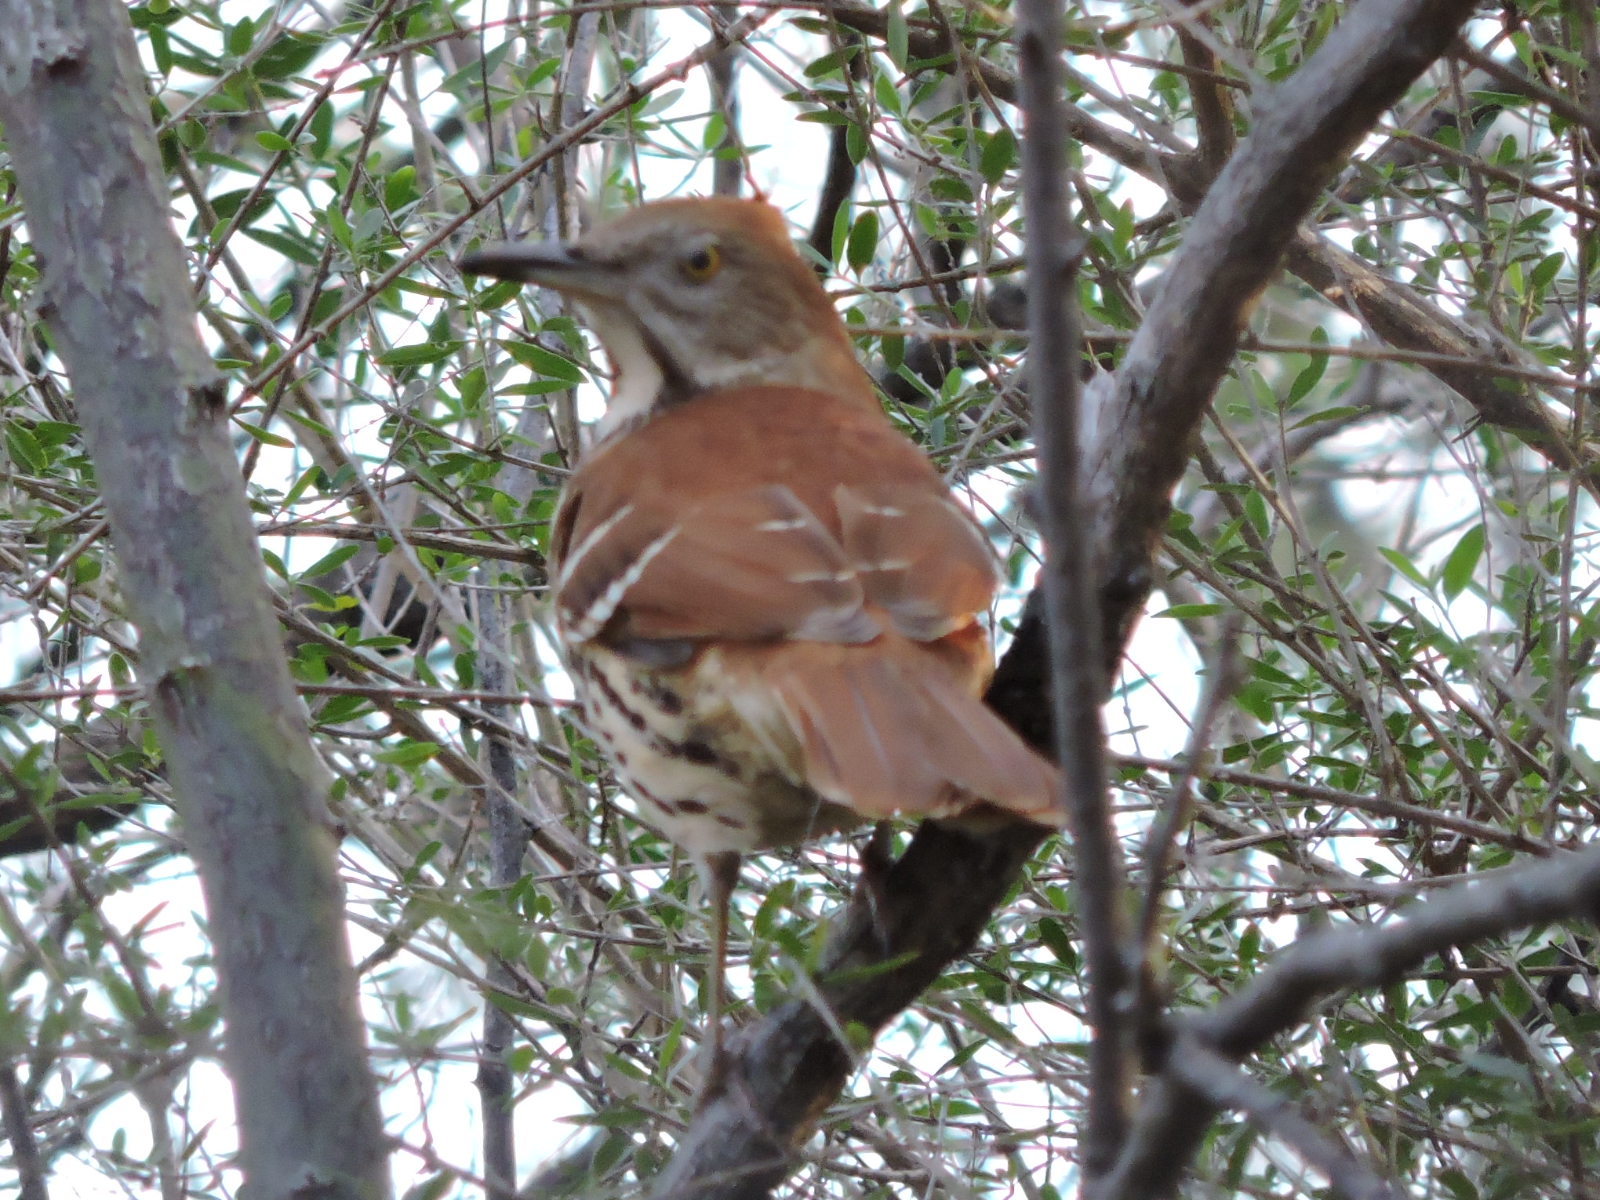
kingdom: Animalia
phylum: Chordata
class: Aves
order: Passeriformes
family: Mimidae
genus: Toxostoma
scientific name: Toxostoma rufum
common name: Brown thrasher
